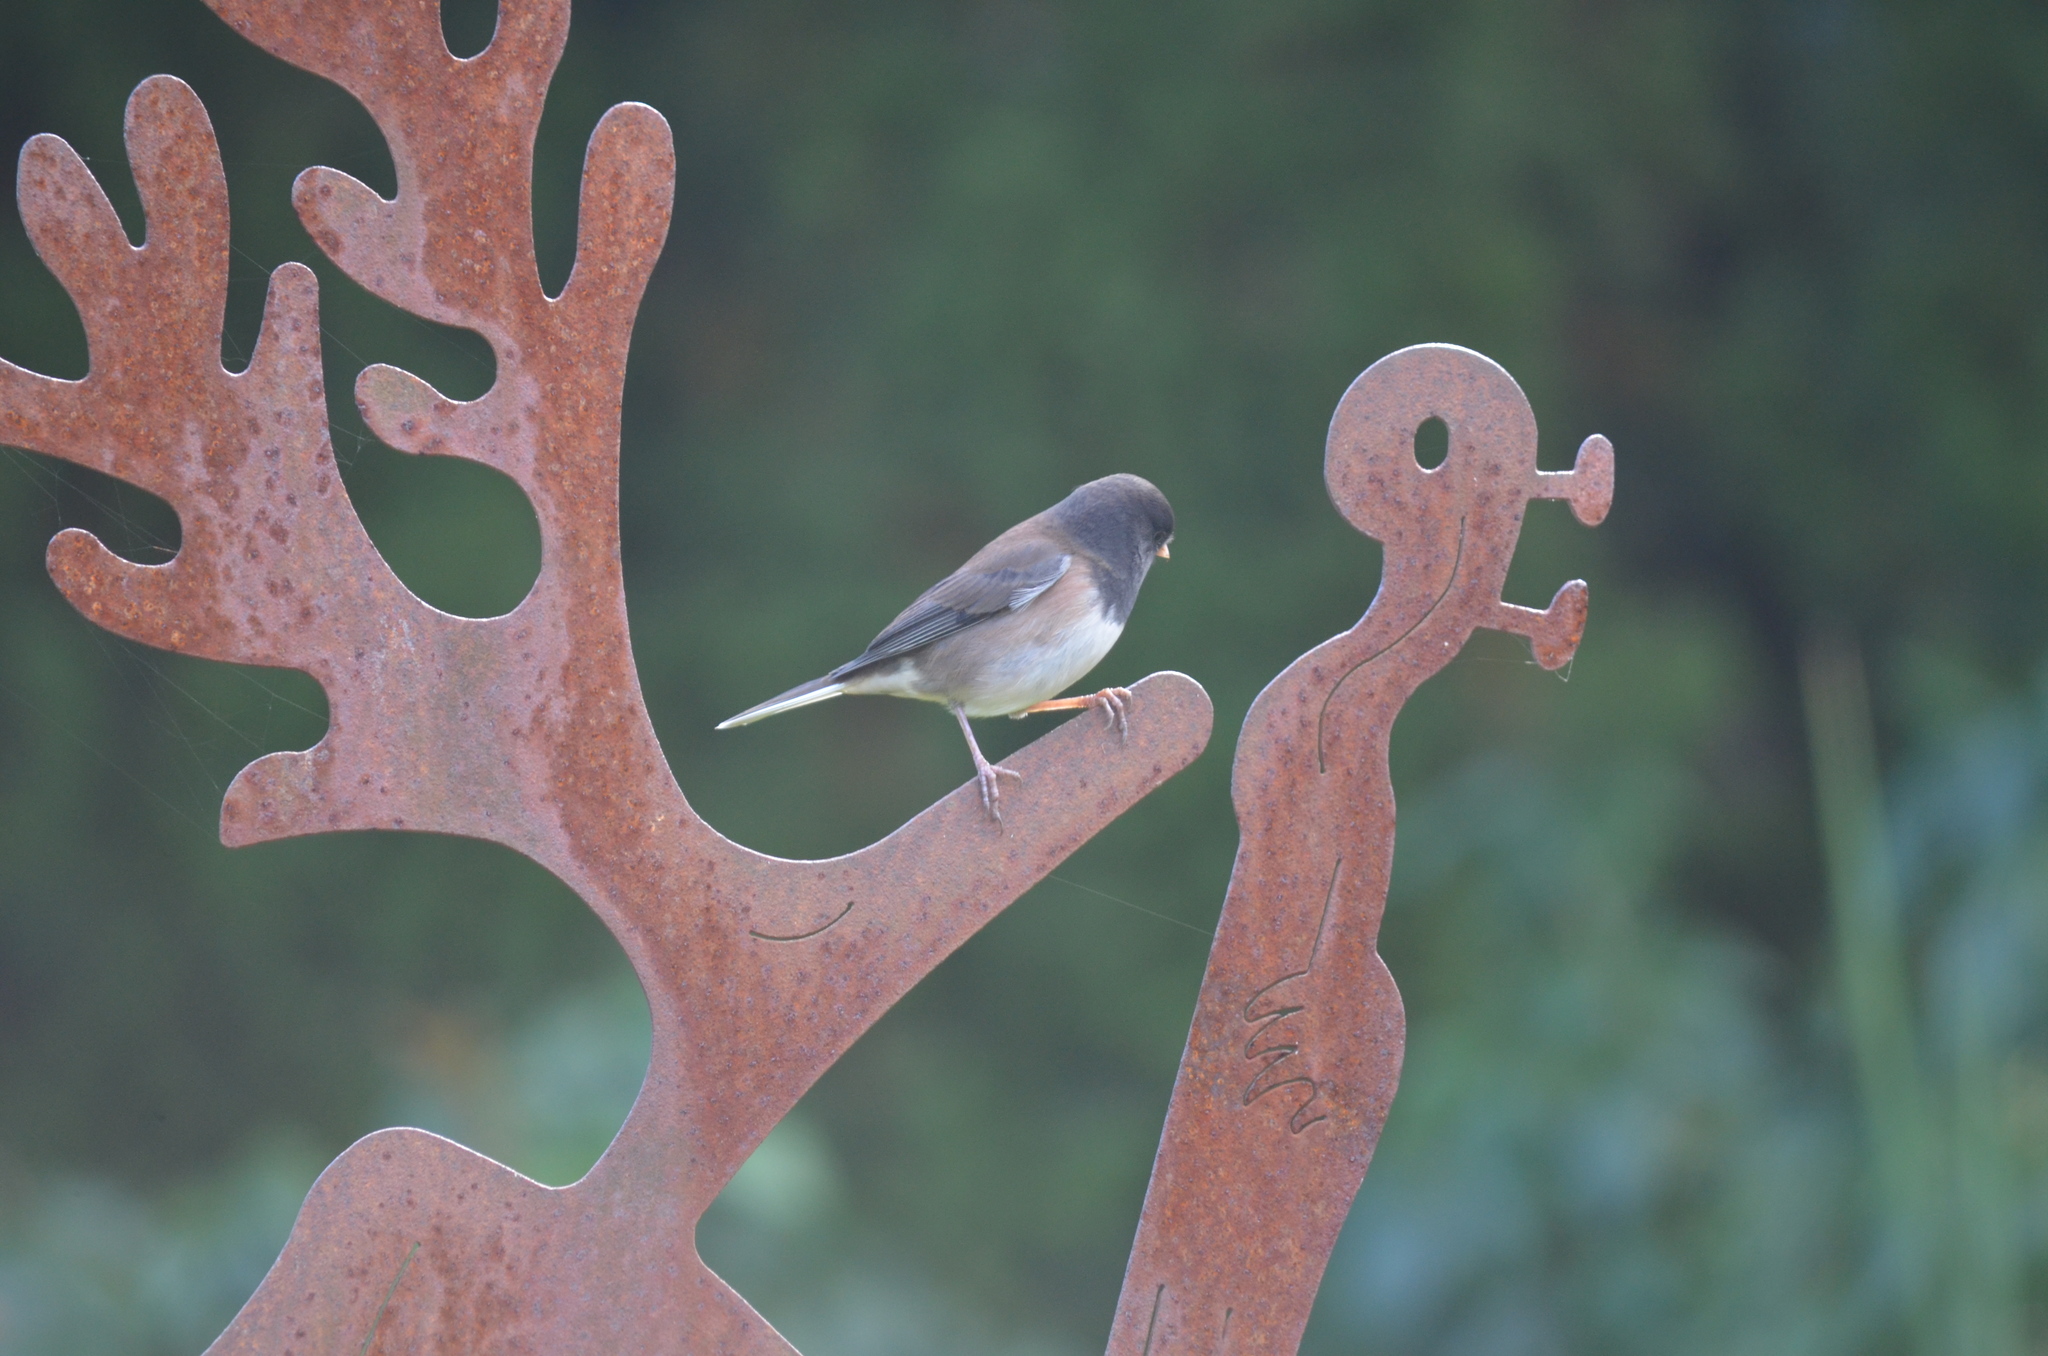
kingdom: Animalia
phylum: Chordata
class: Aves
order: Passeriformes
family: Passerellidae
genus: Junco
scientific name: Junco hyemalis
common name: Dark-eyed junco
